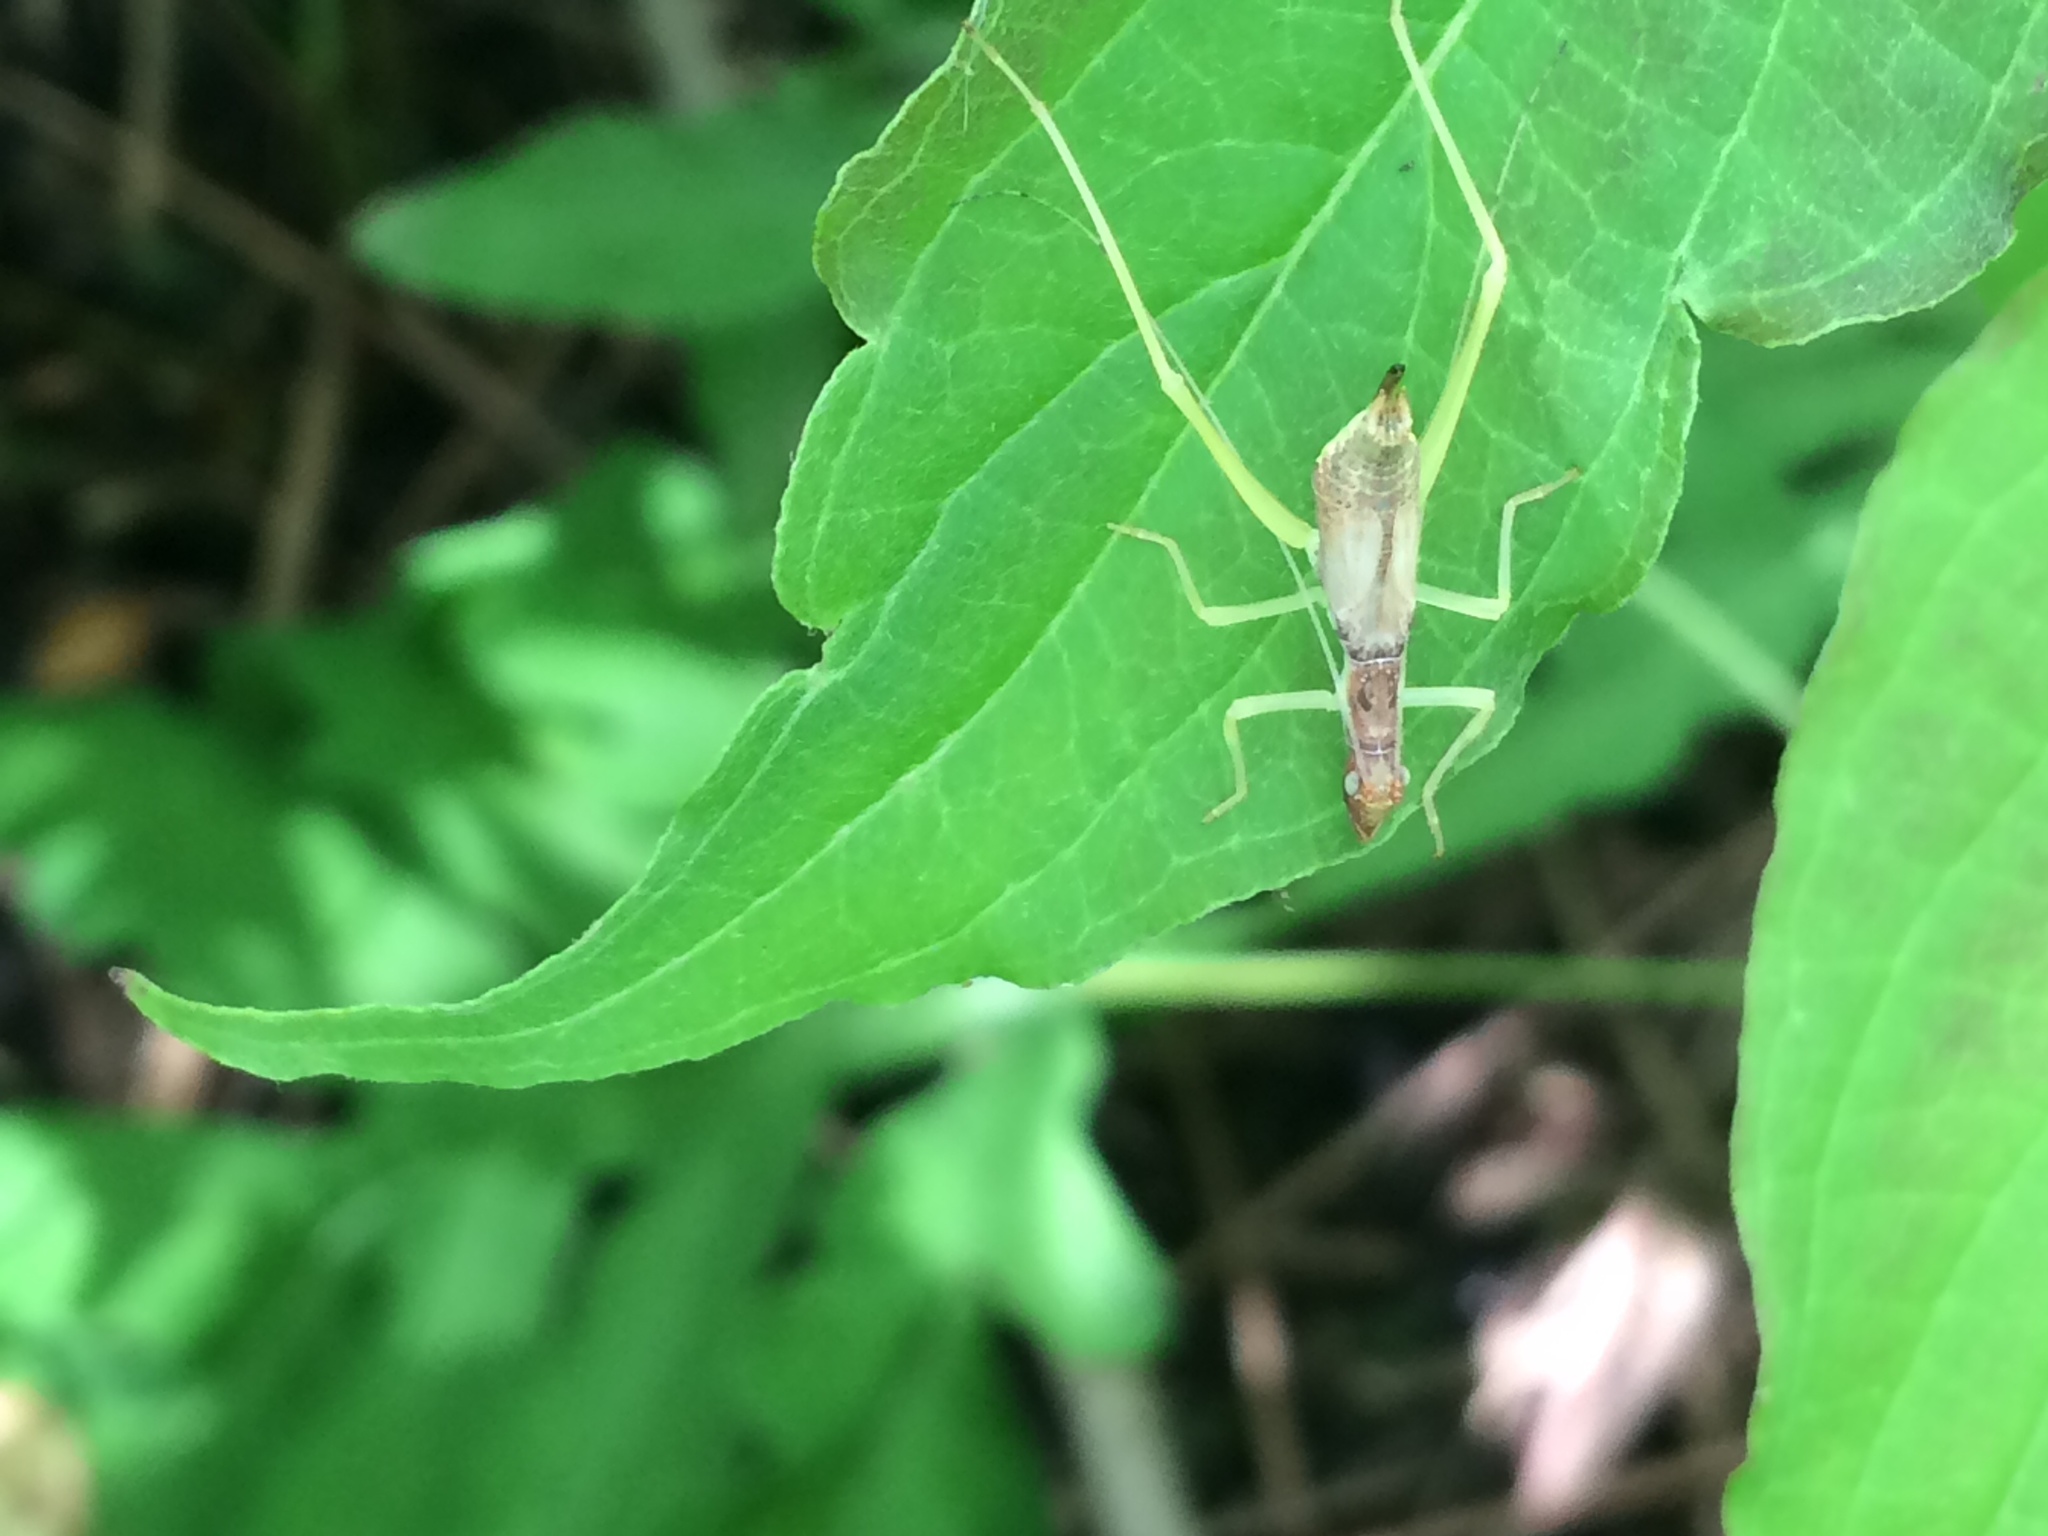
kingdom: Animalia
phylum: Arthropoda
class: Insecta
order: Orthoptera
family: Gryllidae
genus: Neoxabea
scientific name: Neoxabea bipunctata
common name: Two-spotted tree cricket
